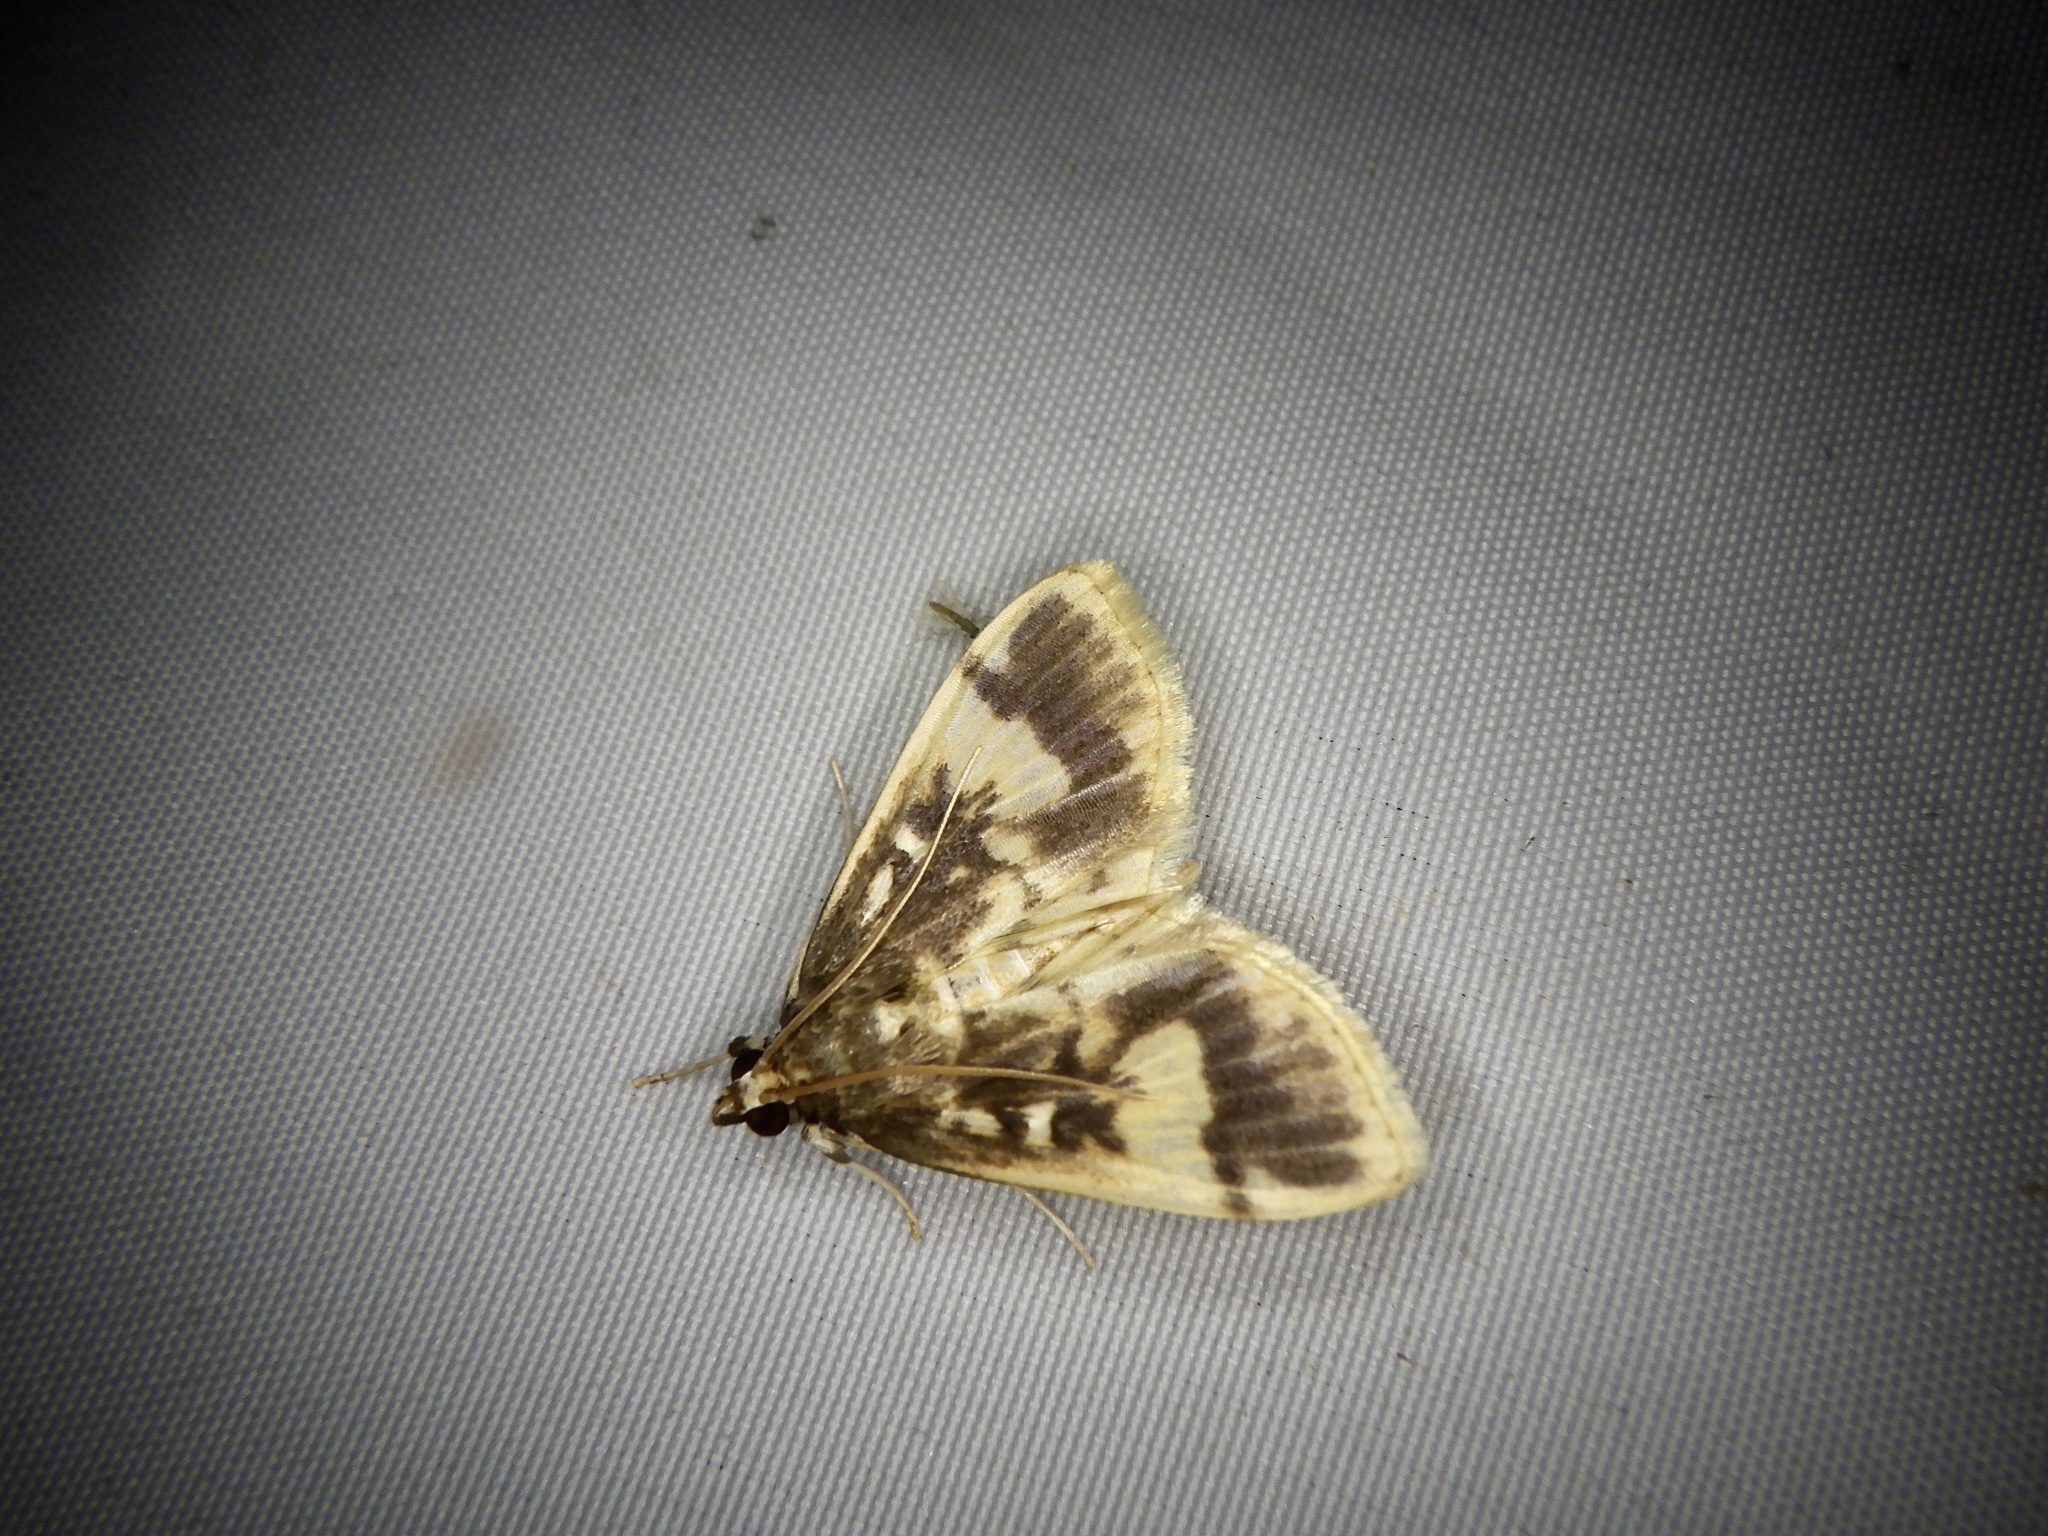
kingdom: Animalia
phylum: Arthropoda
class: Insecta
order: Lepidoptera
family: Crambidae
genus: Pseudebulea
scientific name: Pseudebulea fentoni
